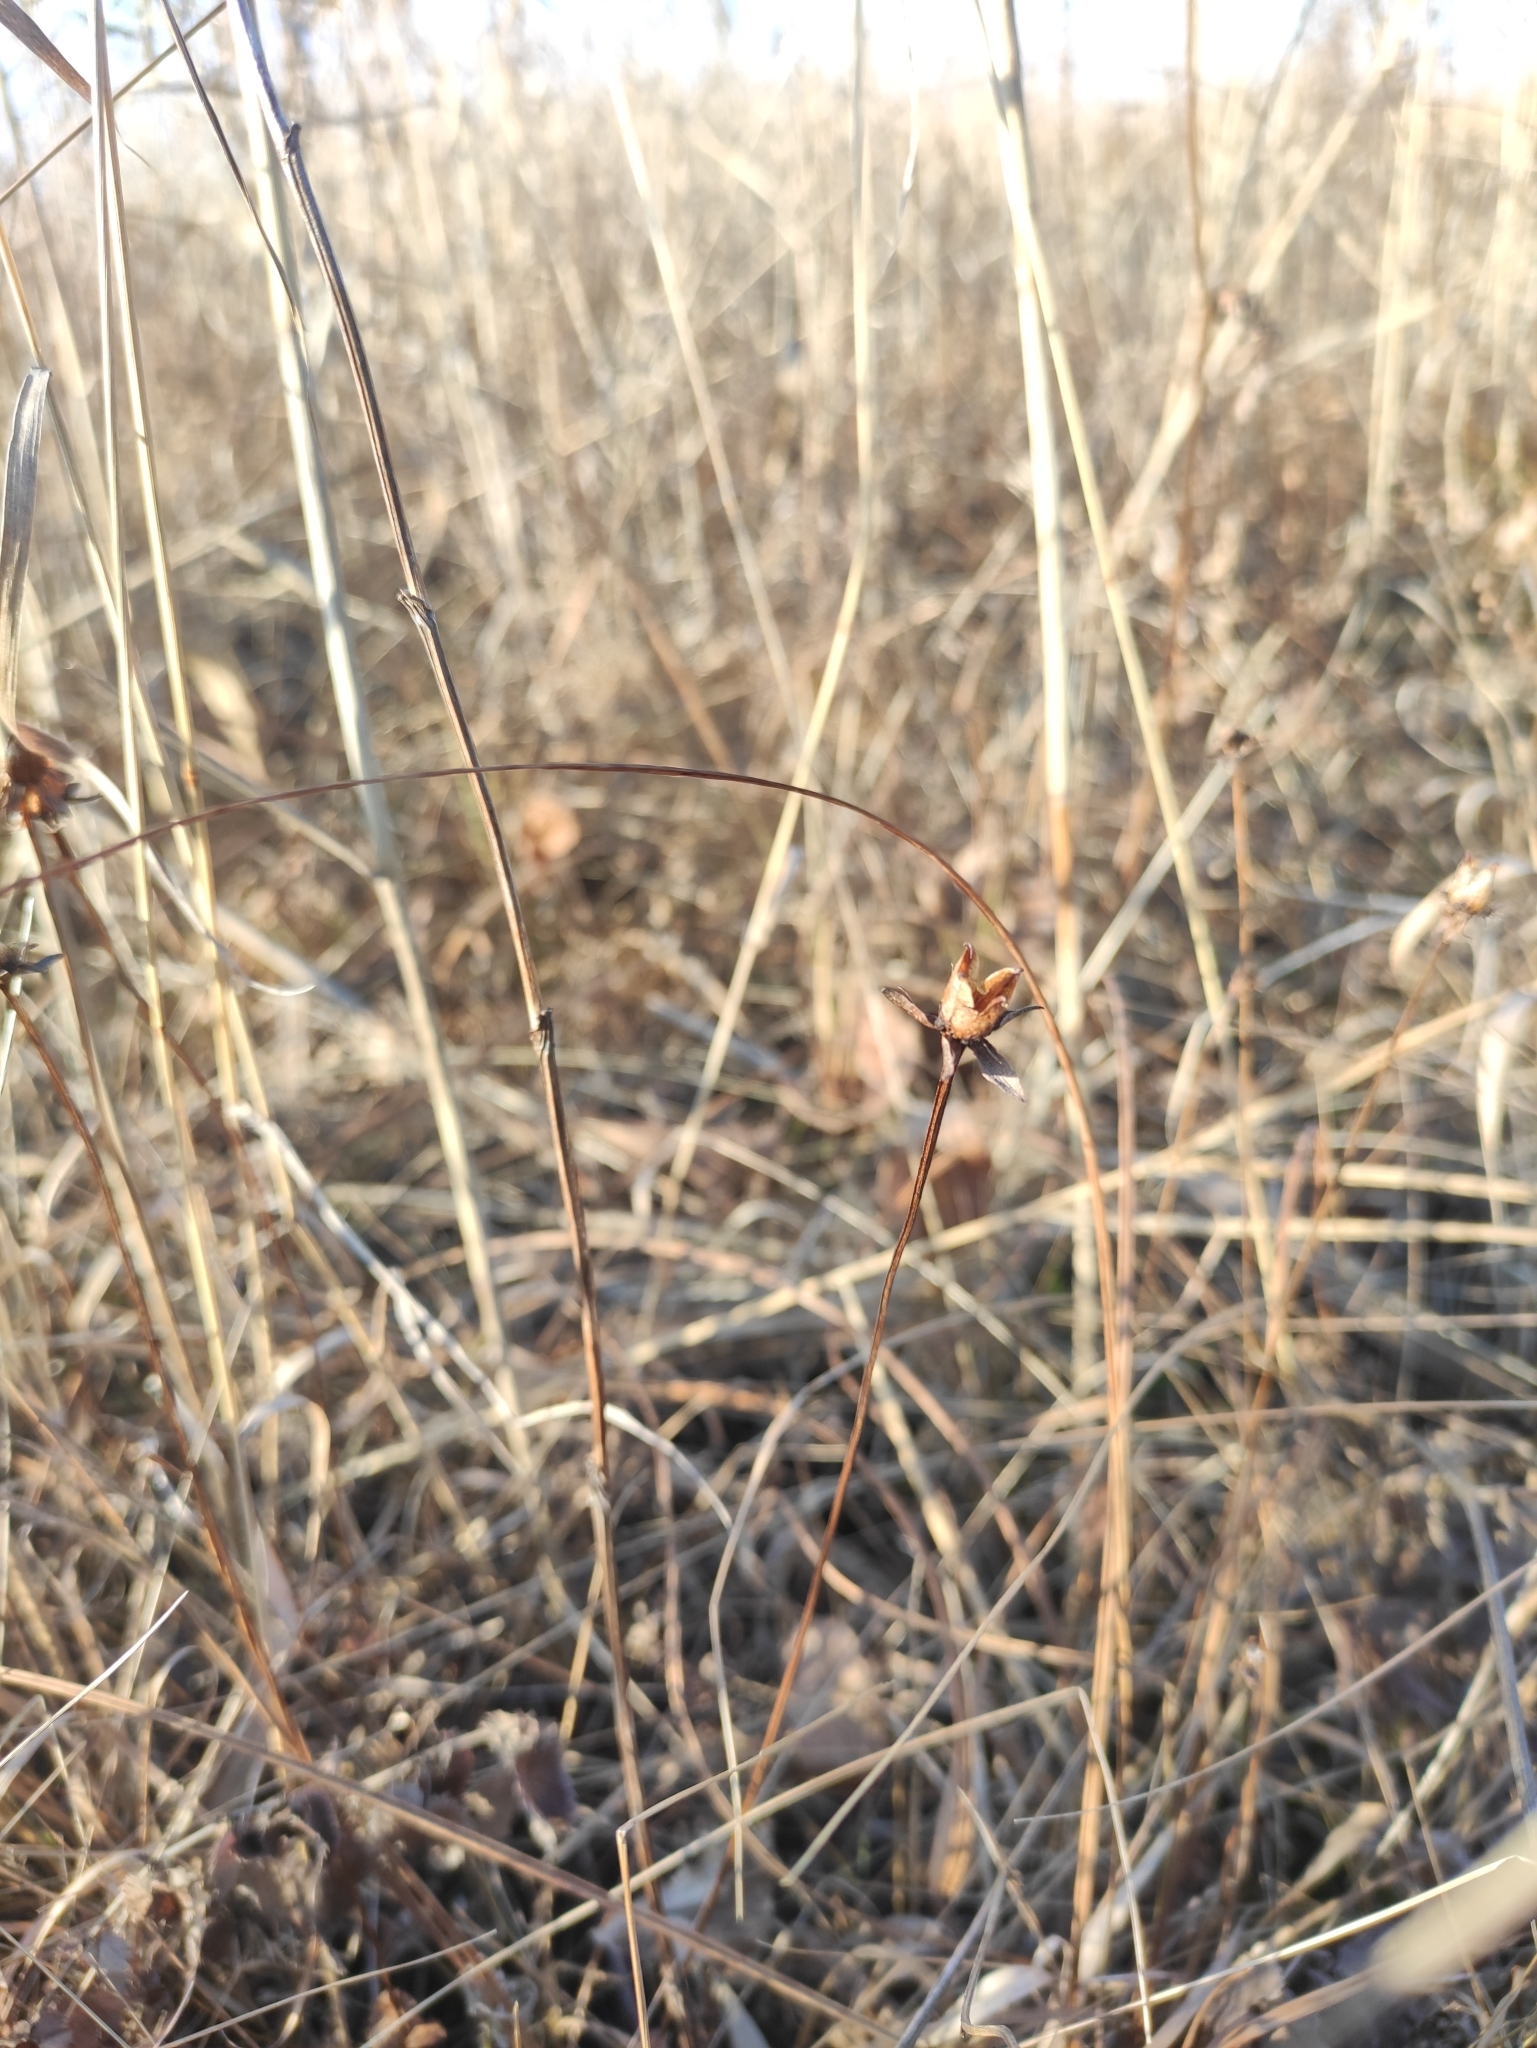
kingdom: Plantae
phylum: Tracheophyta
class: Magnoliopsida
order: Celastrales
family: Parnassiaceae
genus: Parnassia
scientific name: Parnassia palustris
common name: Grass-of-parnassus
